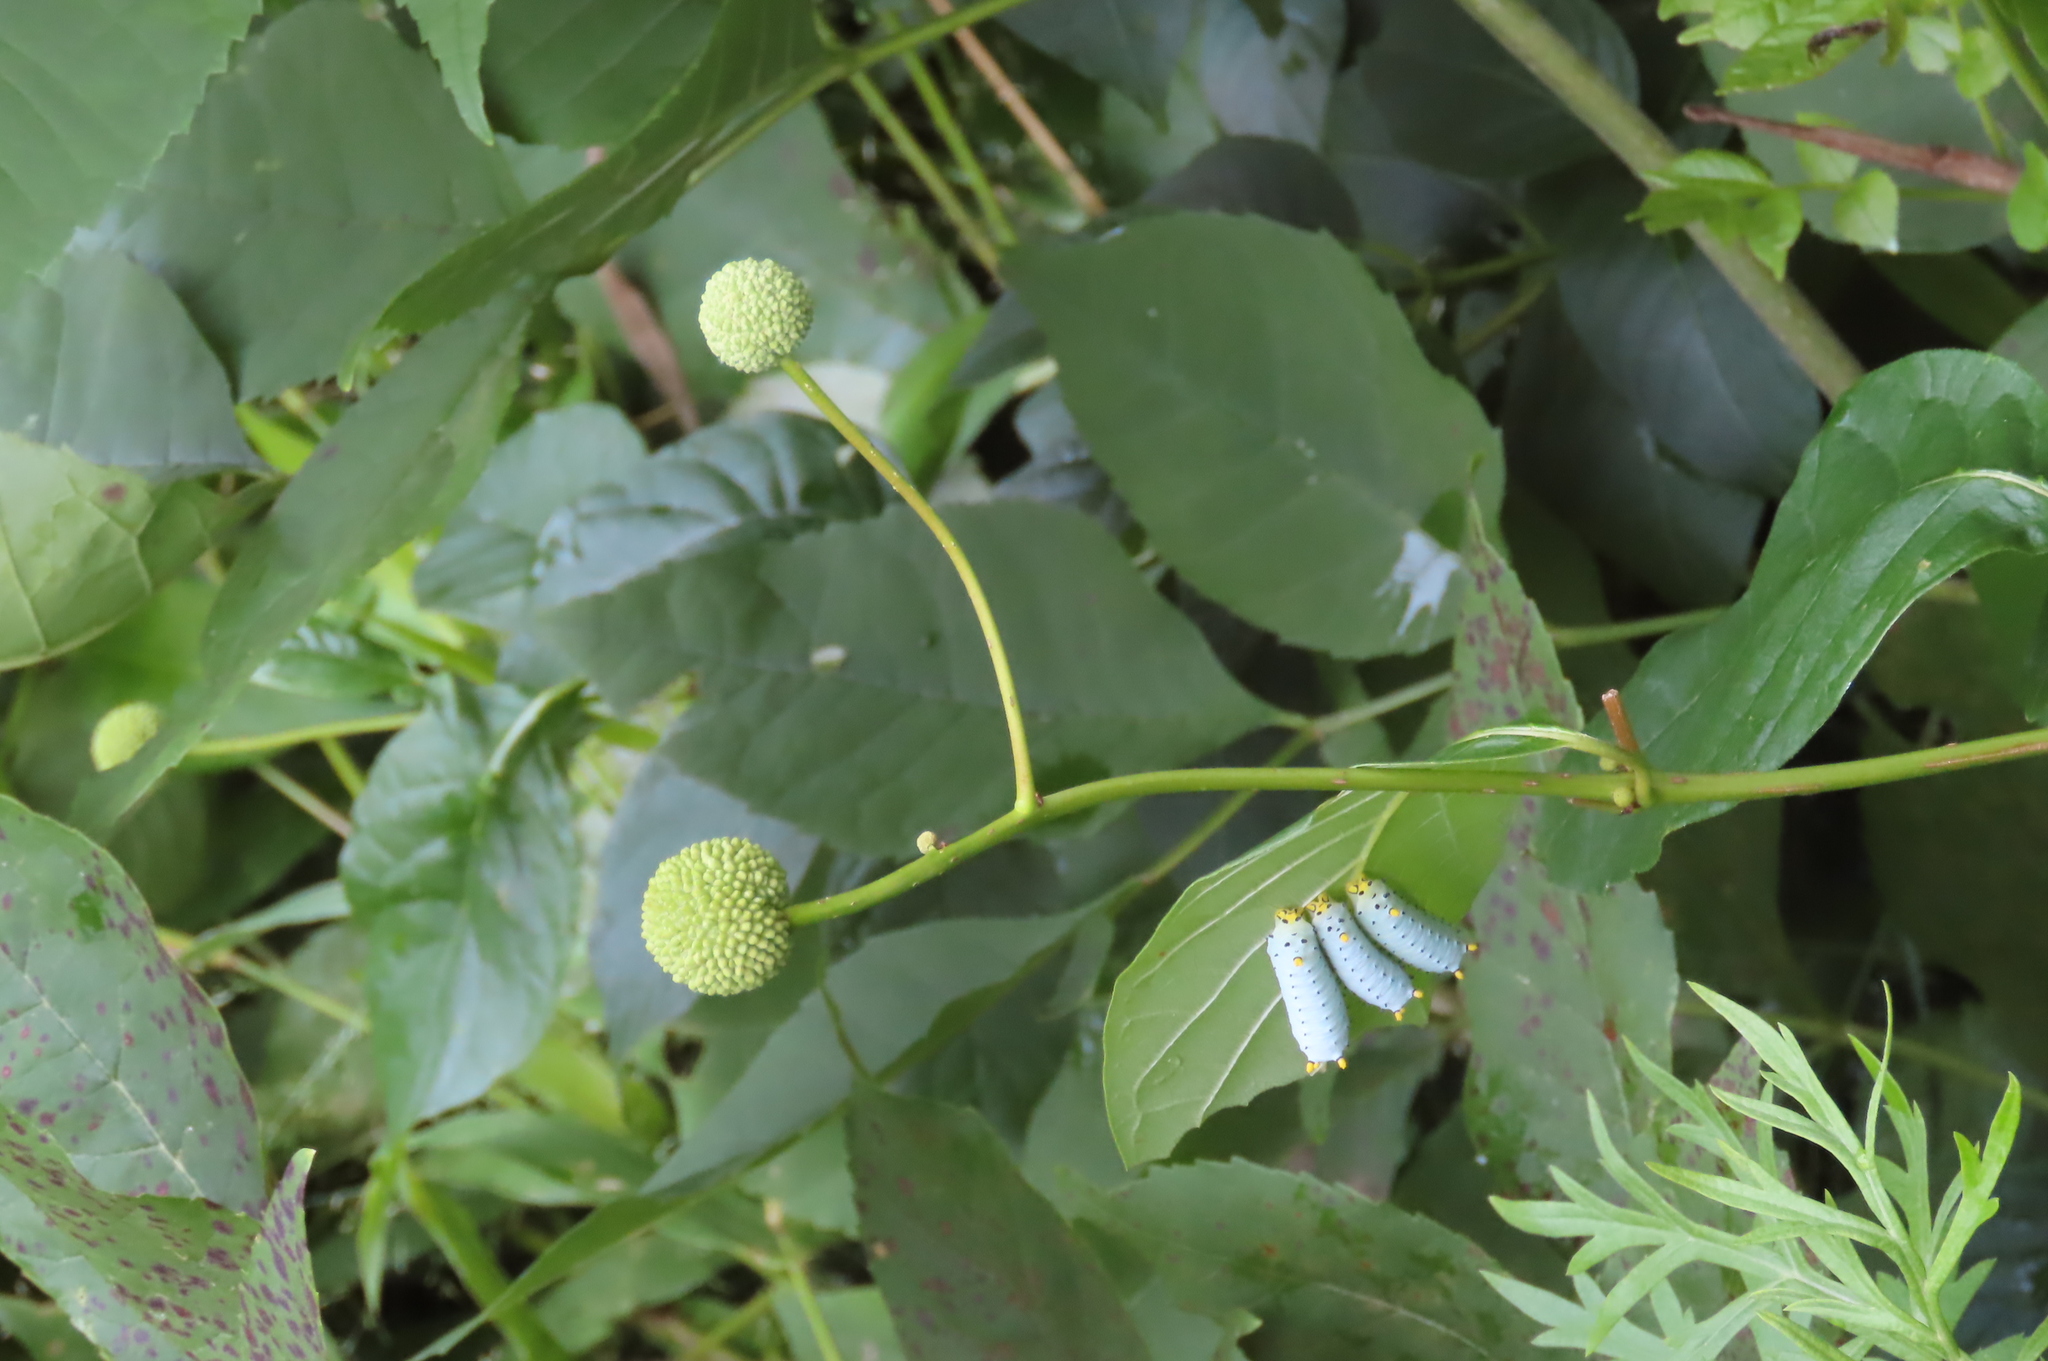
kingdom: Animalia
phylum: Arthropoda
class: Insecta
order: Lepidoptera
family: Saturniidae
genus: Callosamia
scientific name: Callosamia promethea
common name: Promethea silkmoth
